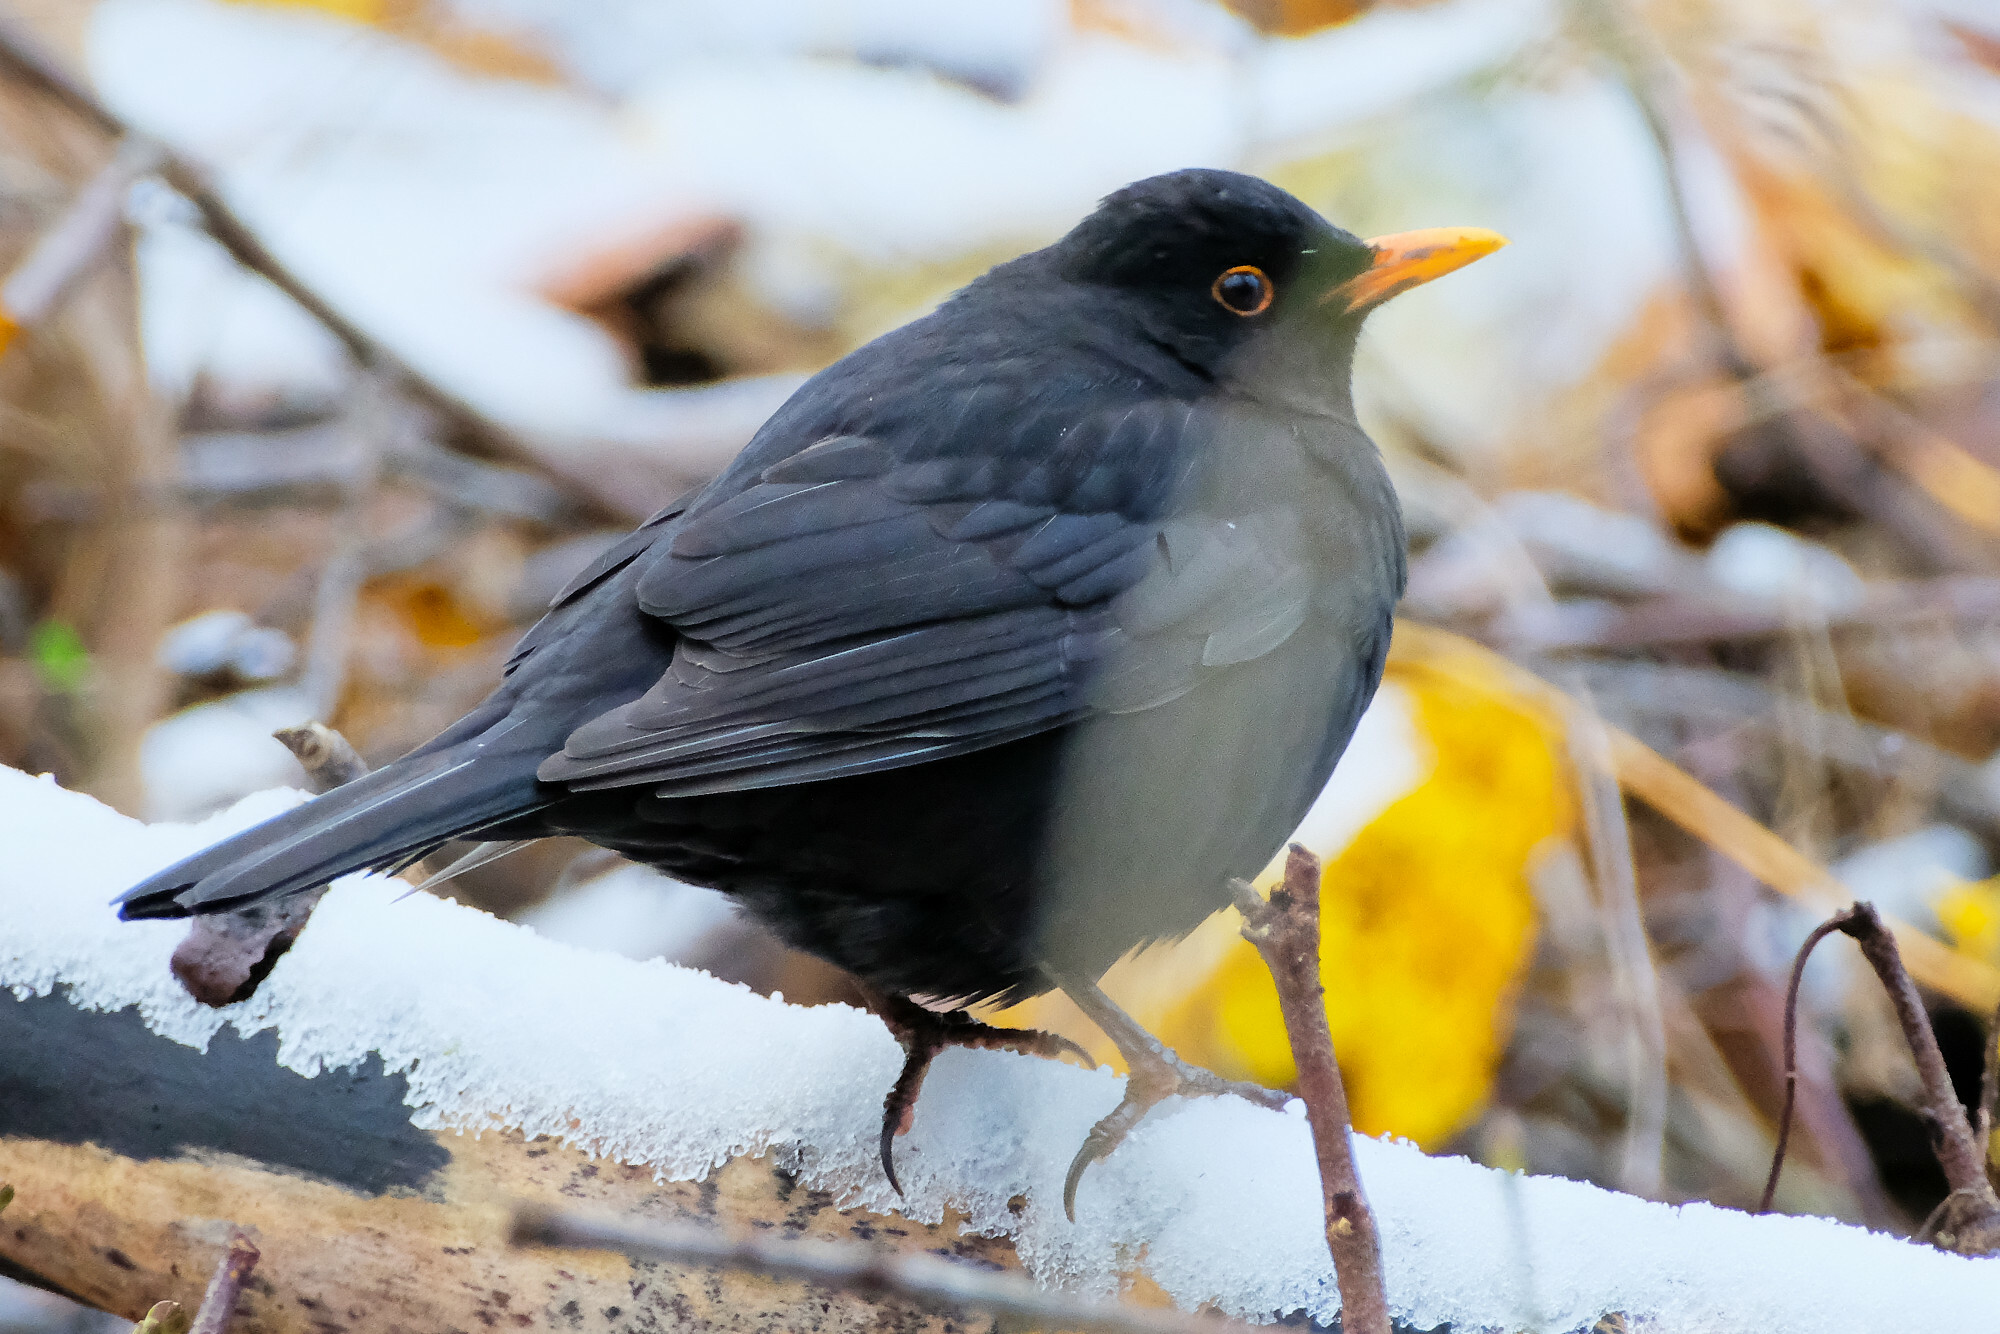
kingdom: Animalia
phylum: Chordata
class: Aves
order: Passeriformes
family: Turdidae
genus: Turdus
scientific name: Turdus merula
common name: Common blackbird
